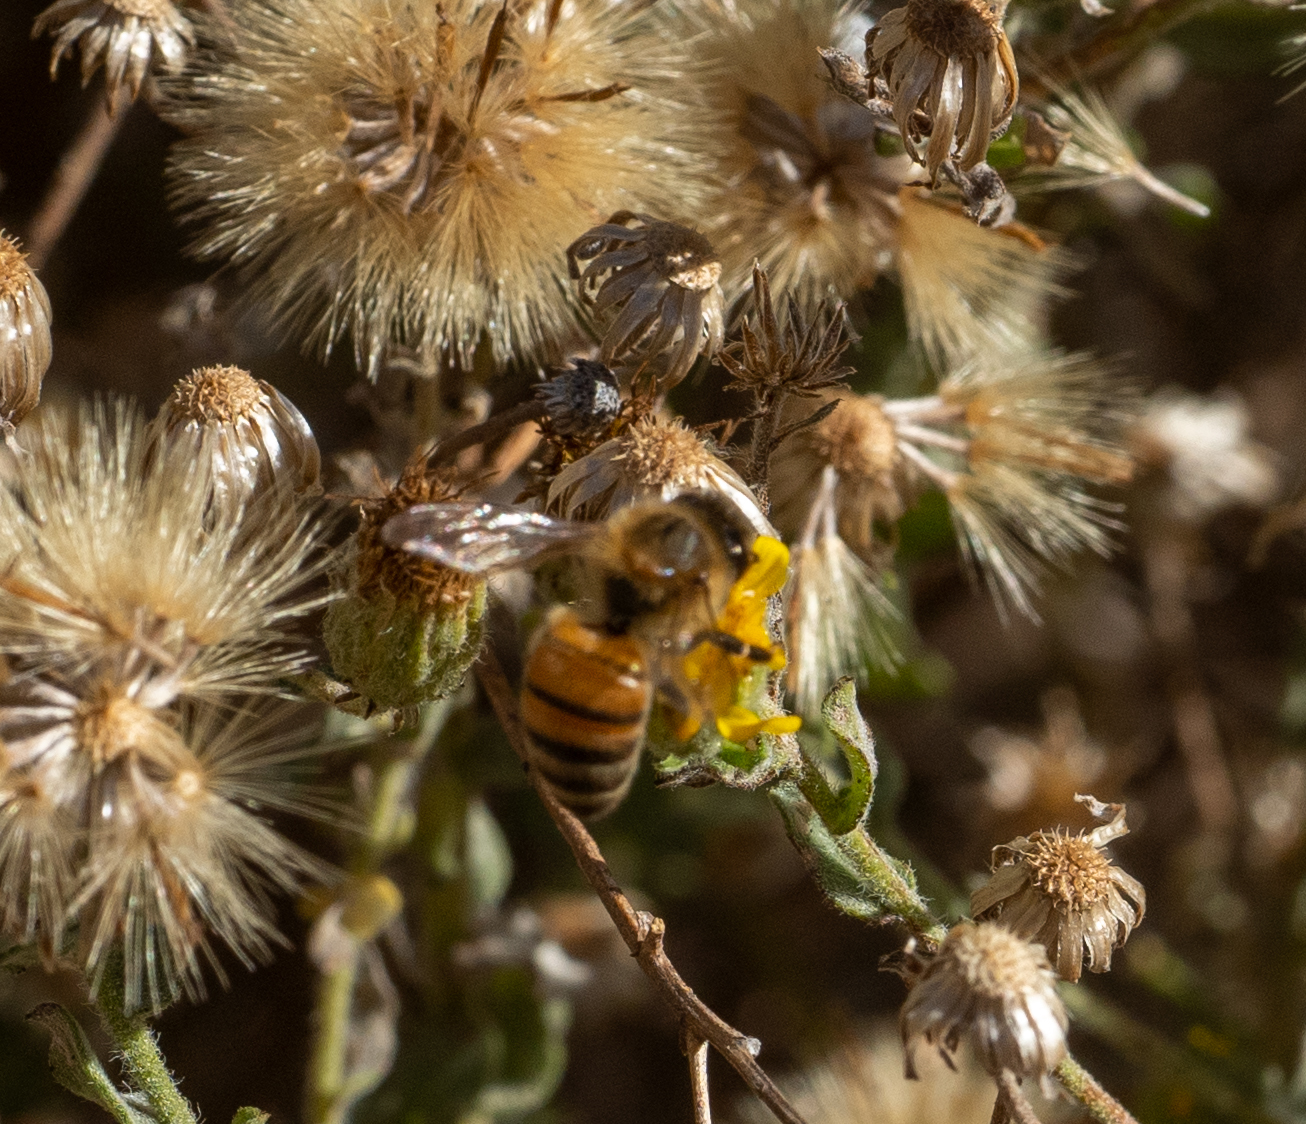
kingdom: Animalia
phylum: Arthropoda
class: Insecta
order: Hymenoptera
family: Apidae
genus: Apis
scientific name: Apis mellifera
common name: Honey bee
